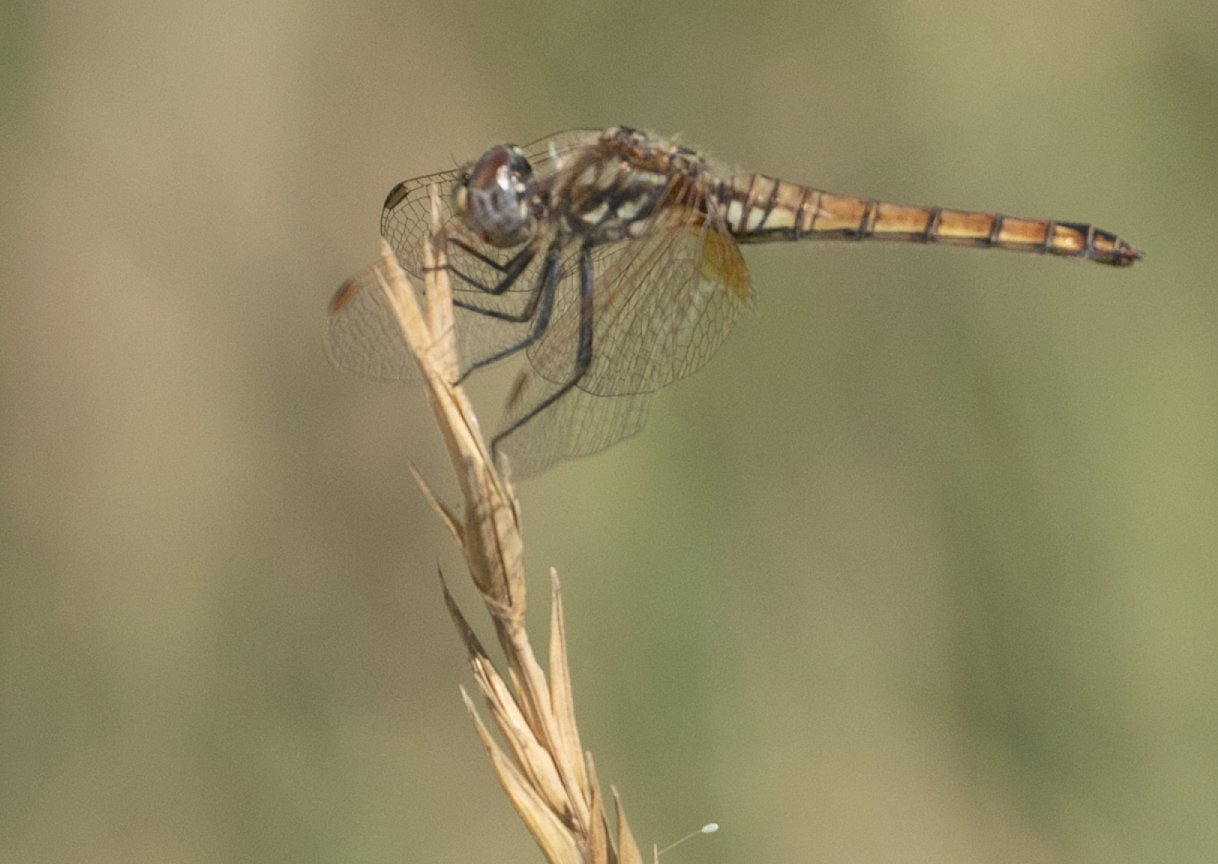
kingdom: Animalia
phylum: Arthropoda
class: Insecta
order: Odonata
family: Libellulidae
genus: Trithemis
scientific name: Trithemis annulata
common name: Violet dropwing
